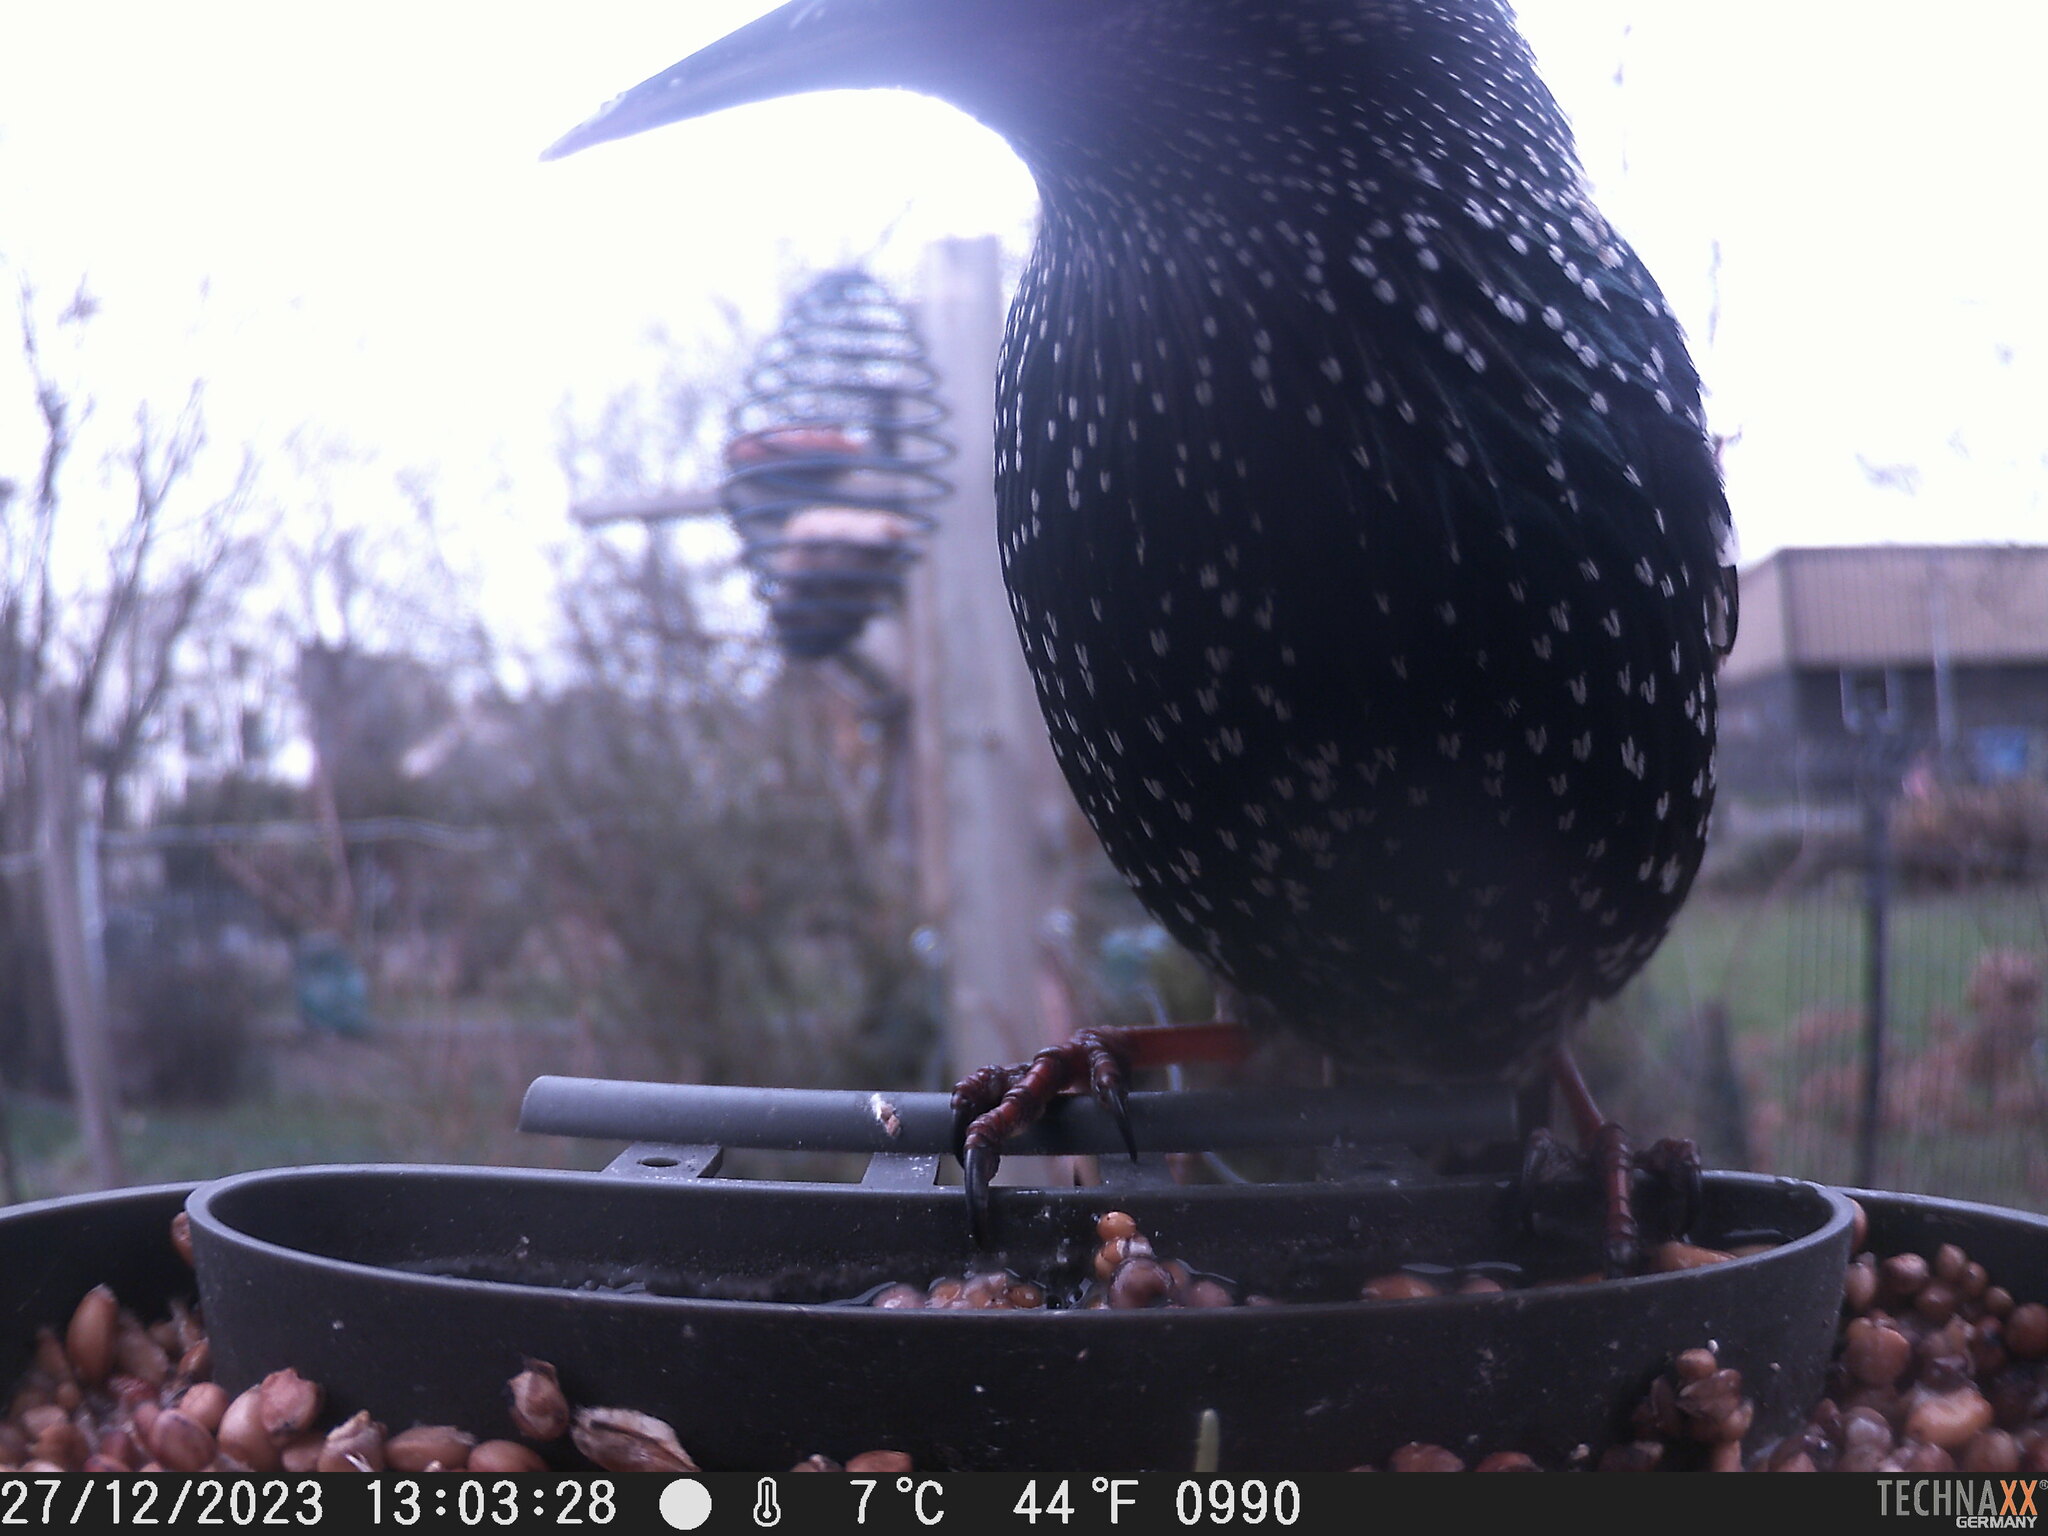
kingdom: Animalia
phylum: Chordata
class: Aves
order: Passeriformes
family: Sturnidae
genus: Sturnus
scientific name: Sturnus vulgaris
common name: Common starling
